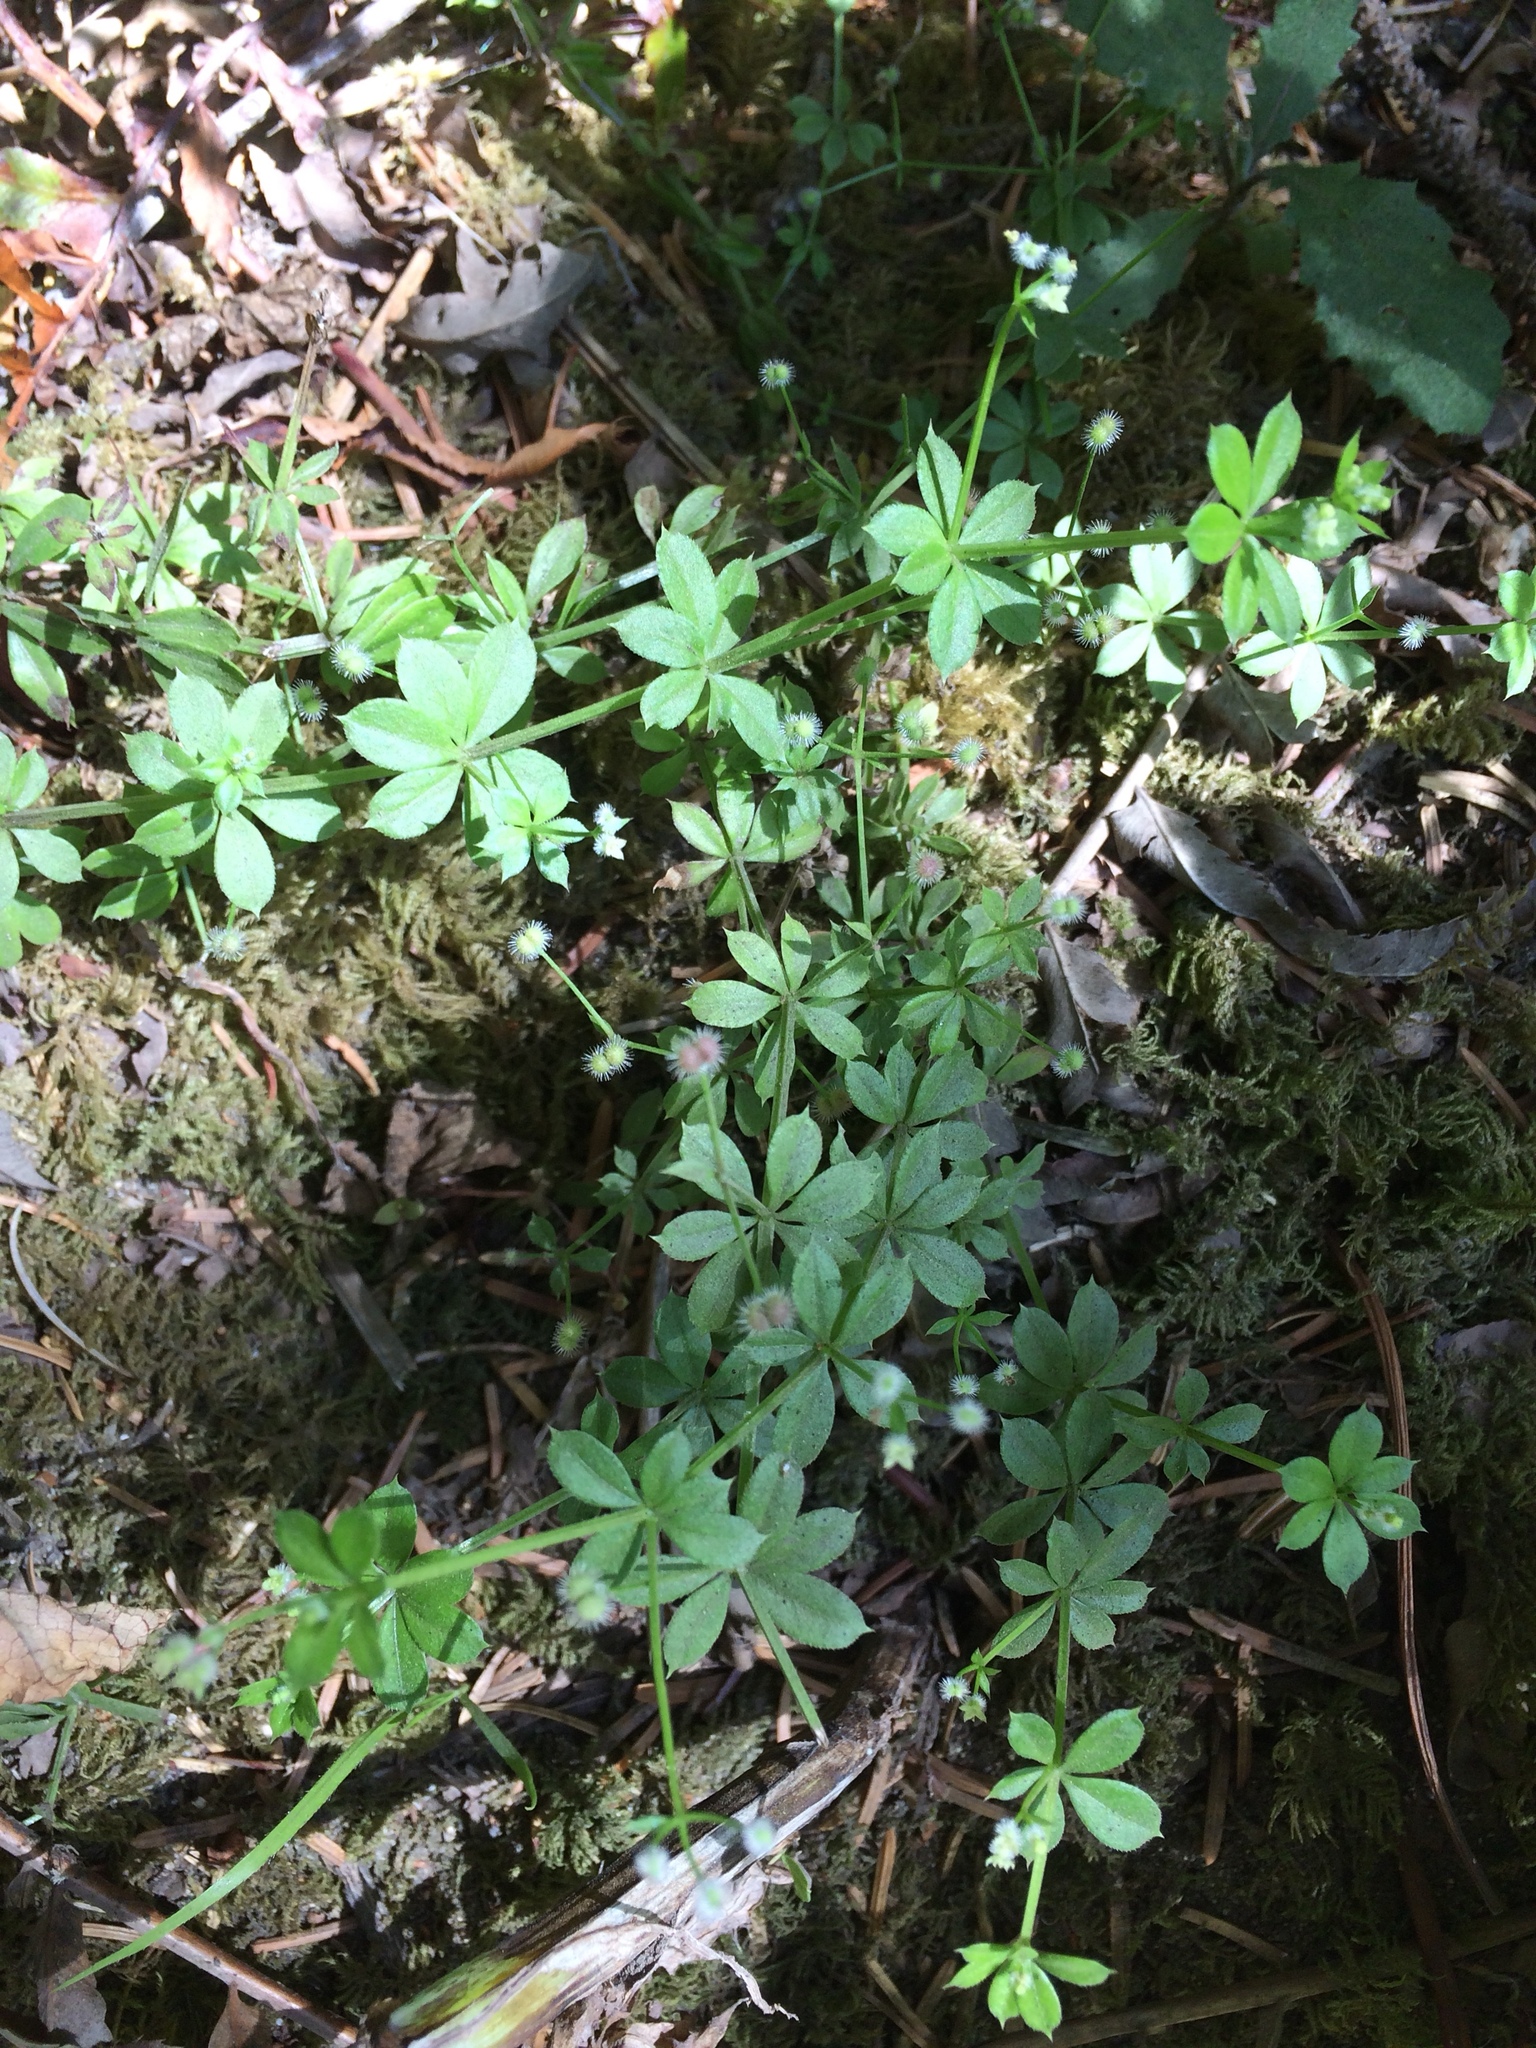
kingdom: Plantae
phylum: Tracheophyta
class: Magnoliopsida
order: Gentianales
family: Rubiaceae
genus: Galium
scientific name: Galium triflorum
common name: Fragrant bedstraw
